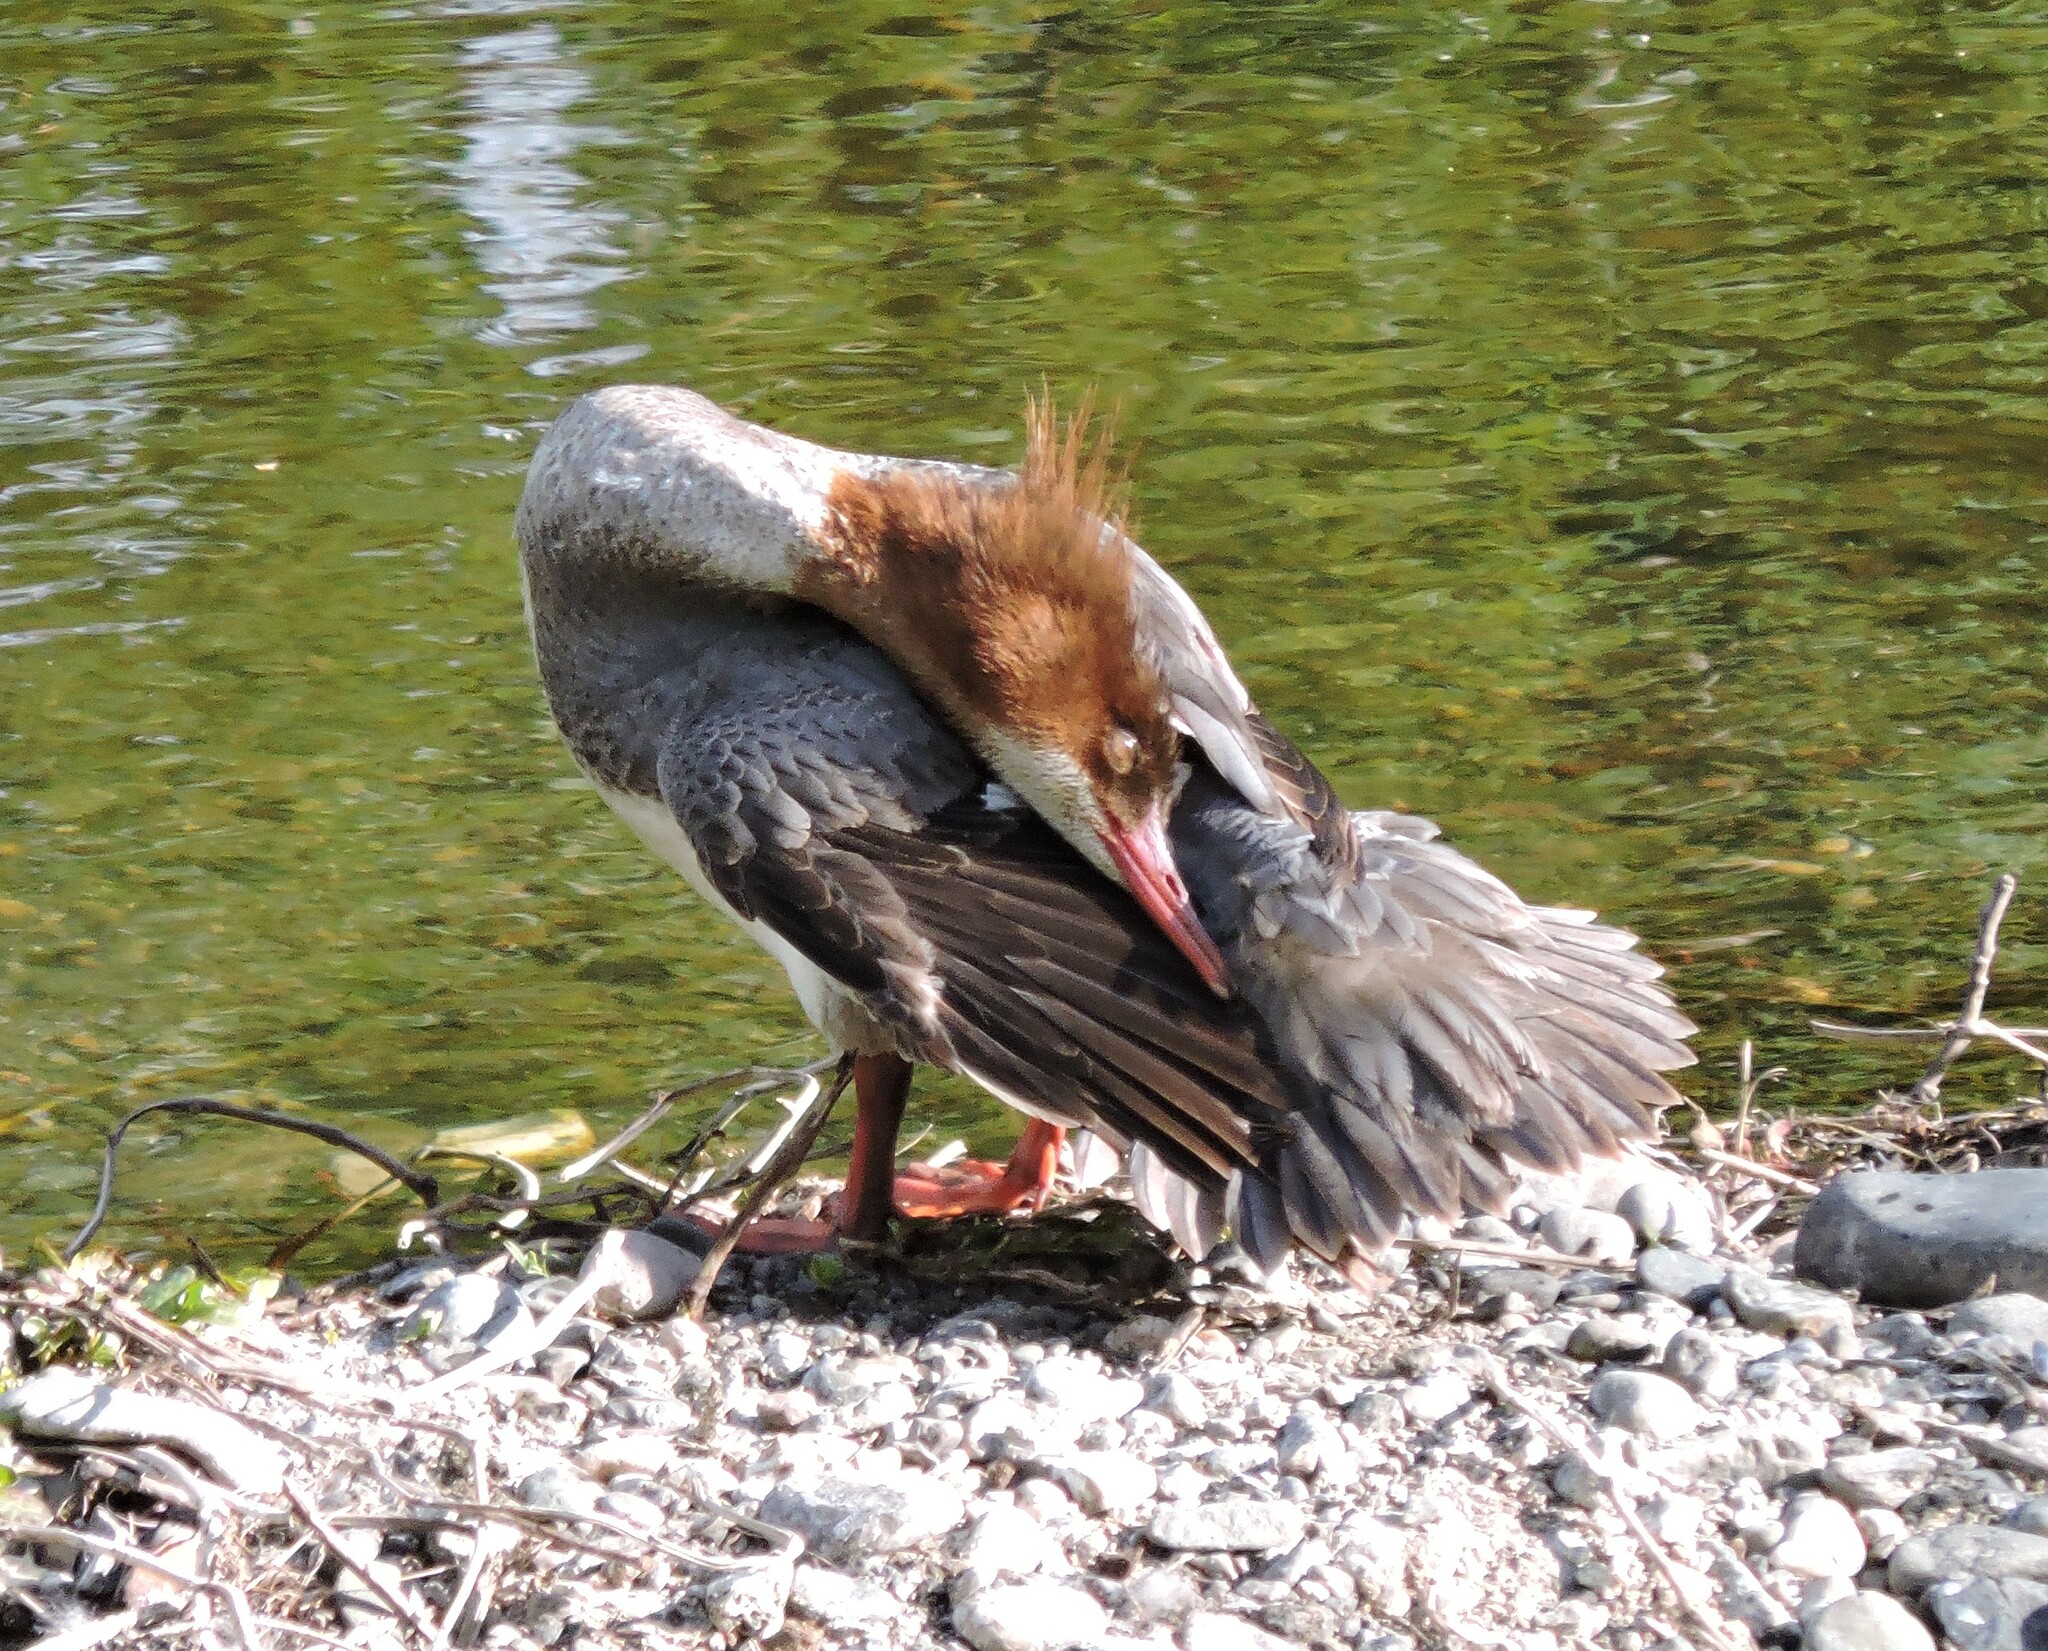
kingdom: Animalia
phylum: Chordata
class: Aves
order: Anseriformes
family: Anatidae
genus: Mergus
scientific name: Mergus merganser
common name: Common merganser
